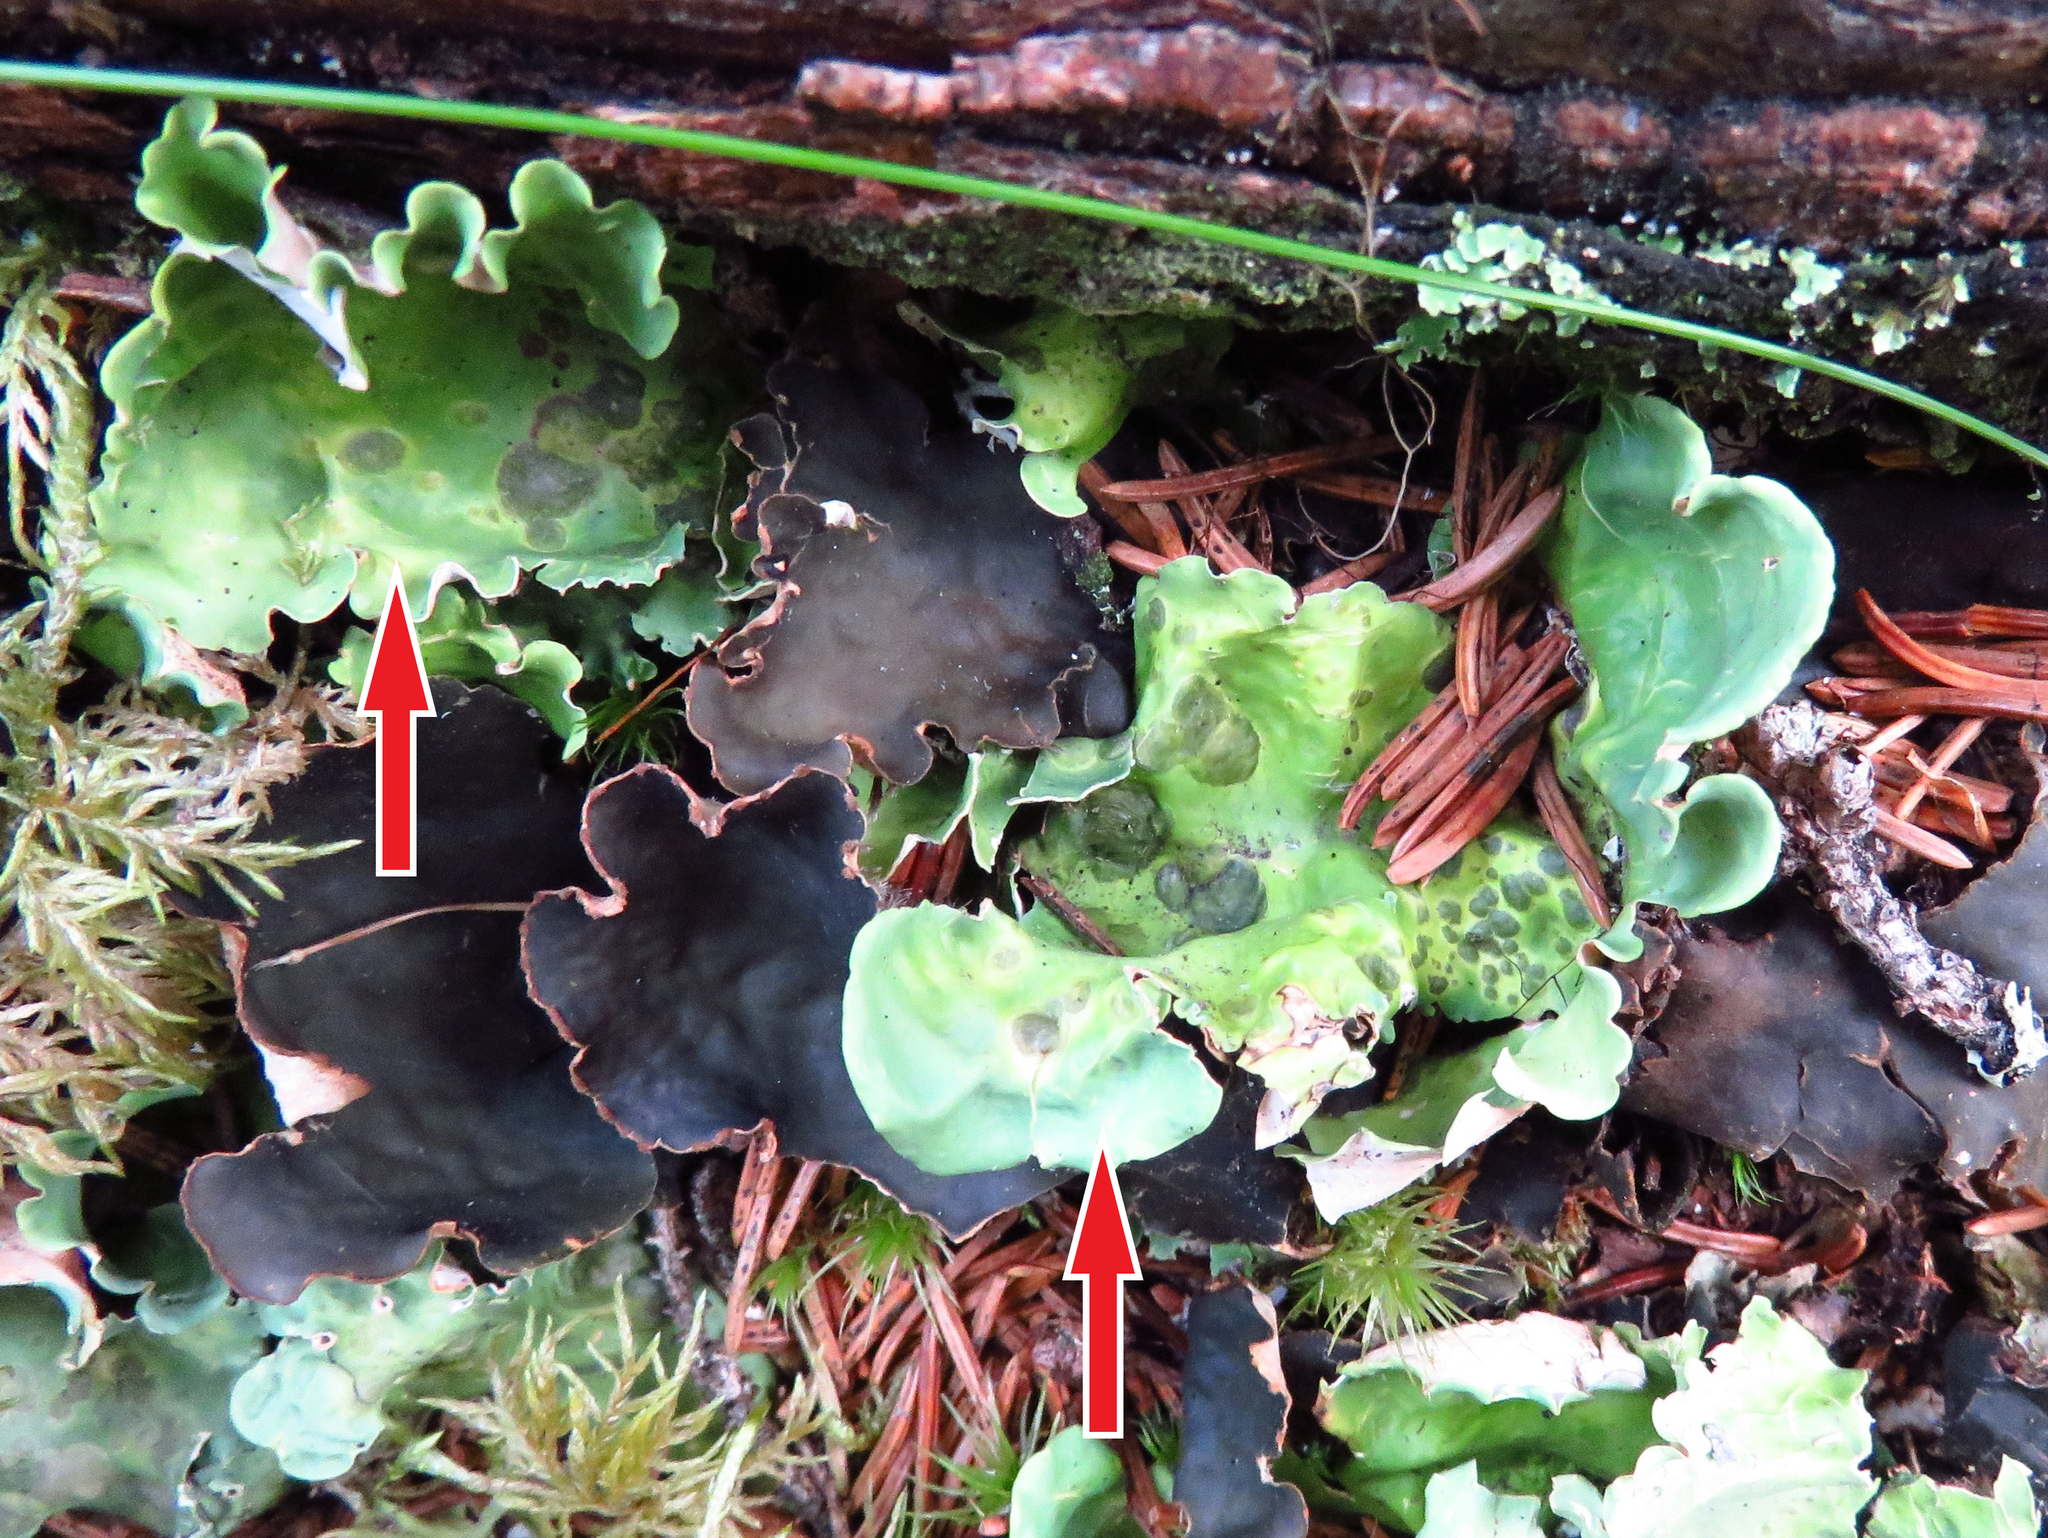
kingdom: Fungi
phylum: Ascomycota
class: Lecanoromycetes
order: Peltigerales
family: Nephromataceae
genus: Nephroma
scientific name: Nephroma arcticum
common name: Arctic kidney-lichen
